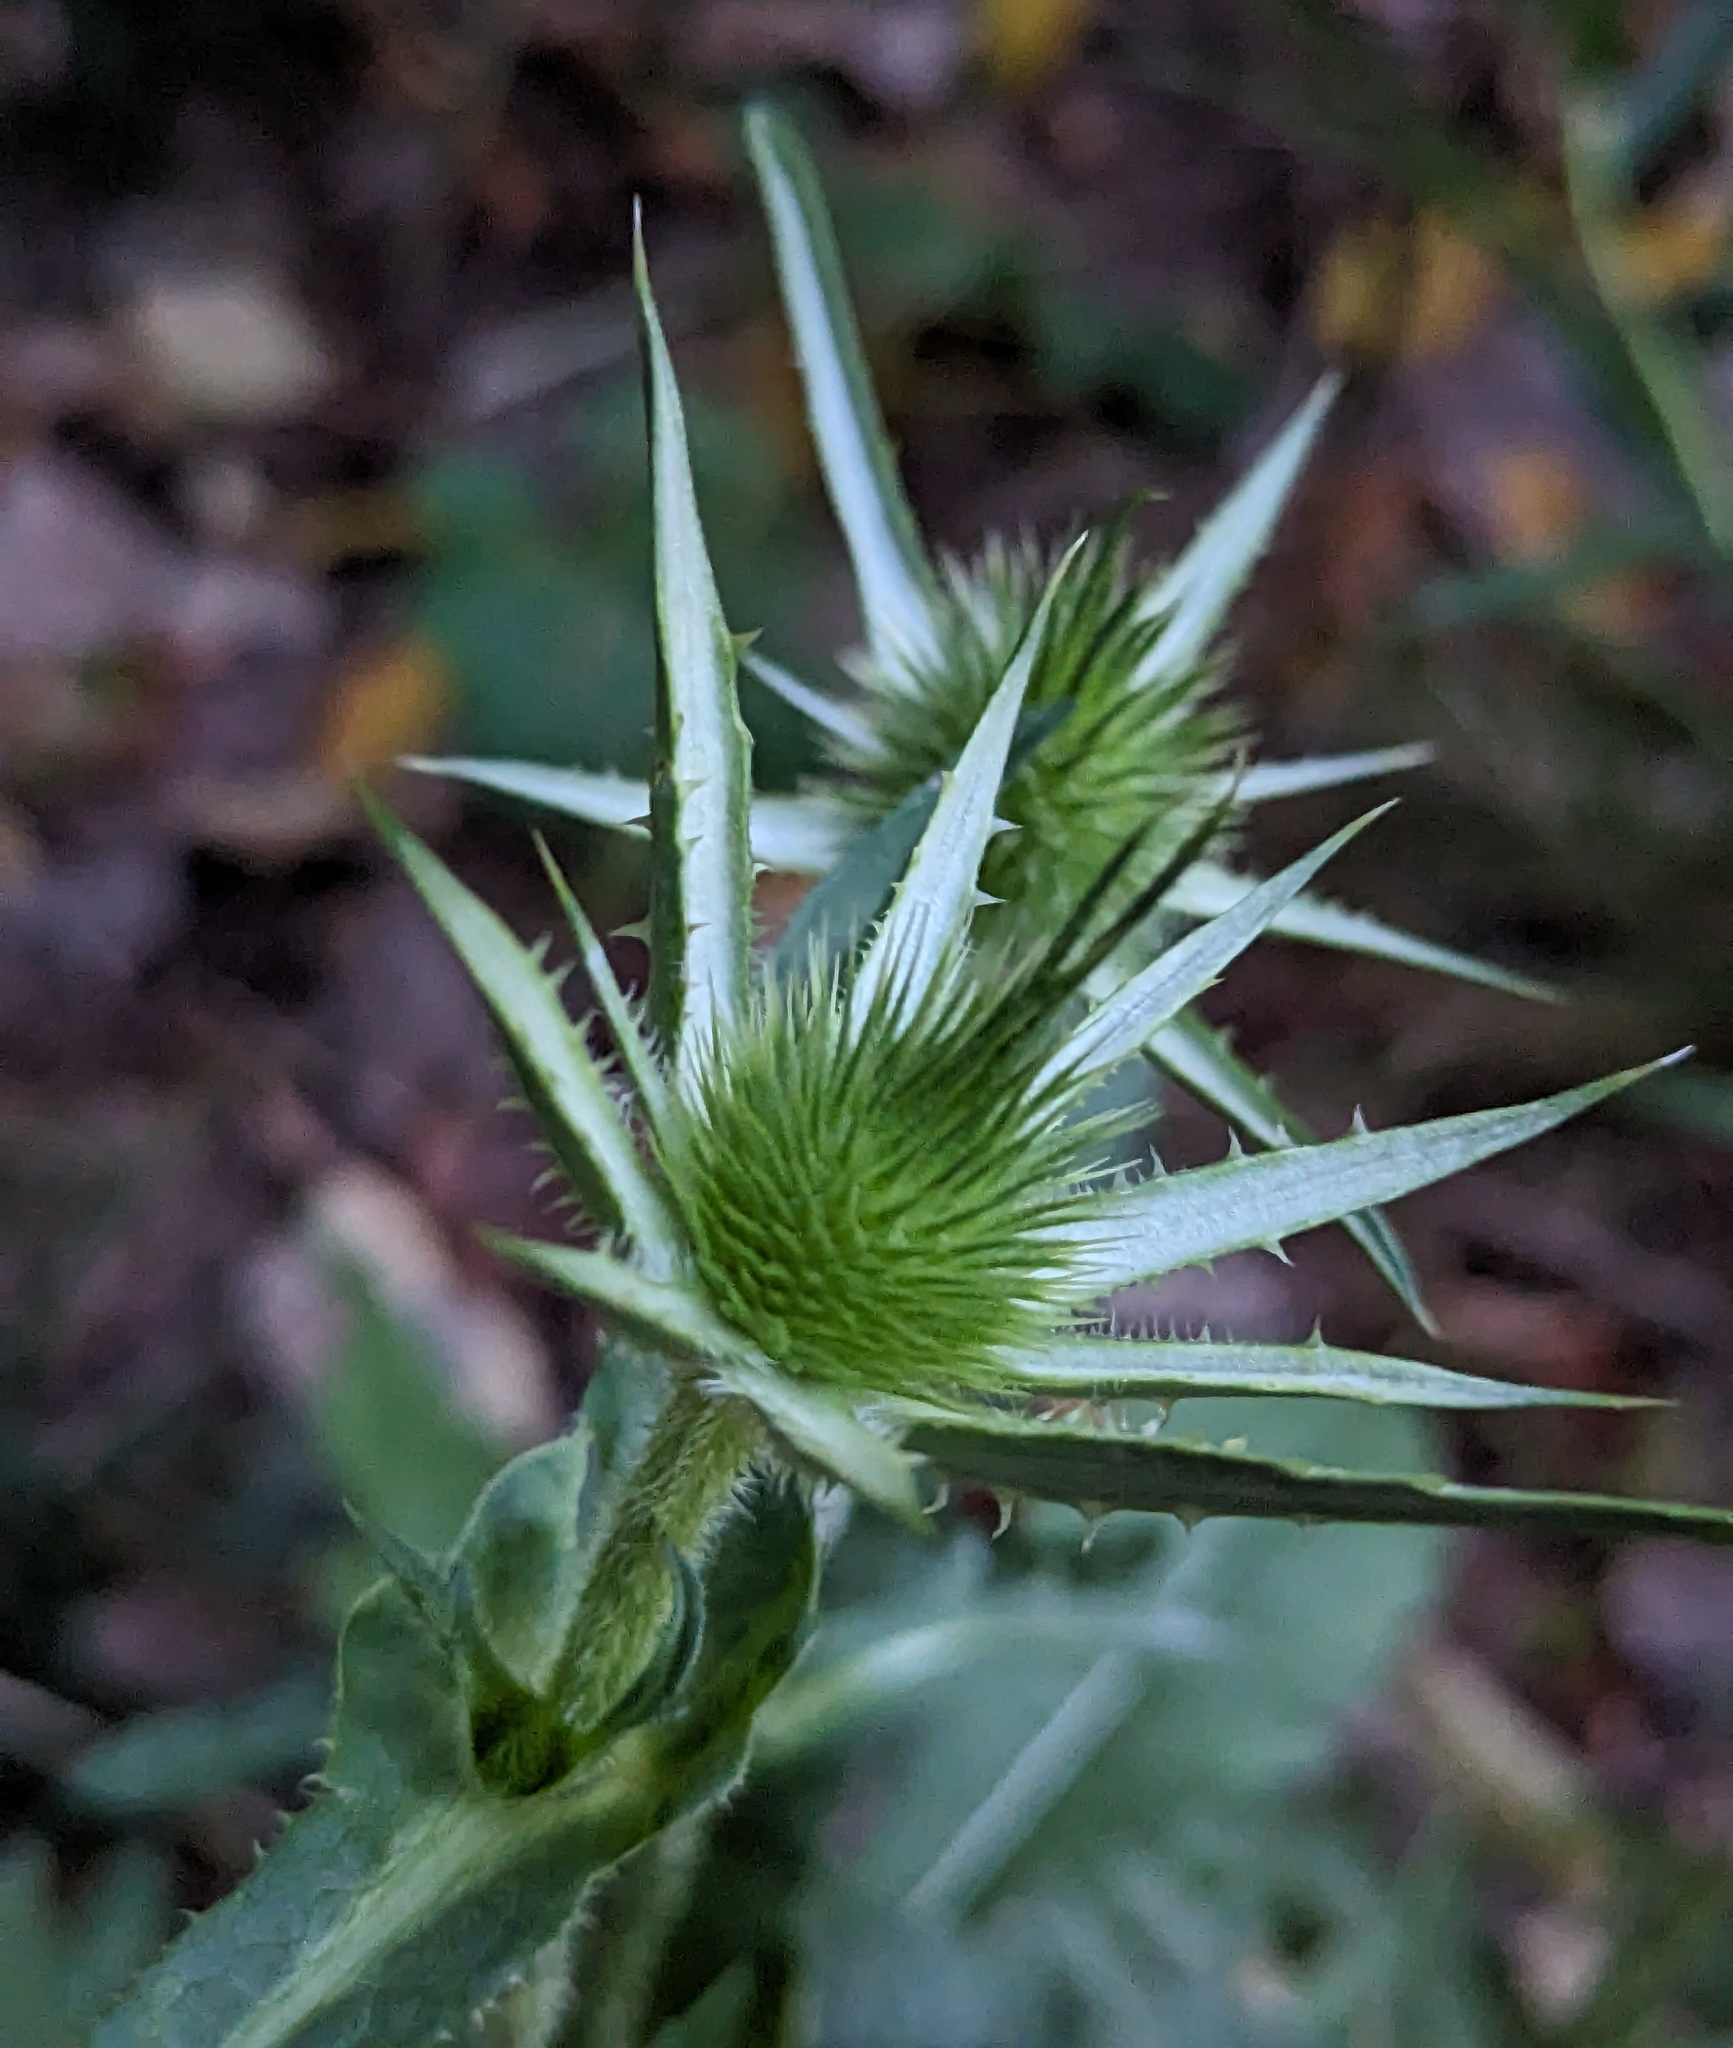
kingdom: Plantae
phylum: Tracheophyta
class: Magnoliopsida
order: Dipsacales
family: Caprifoliaceae
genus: Dipsacus
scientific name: Dipsacus laciniatus
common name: Cut-leaved teasel
